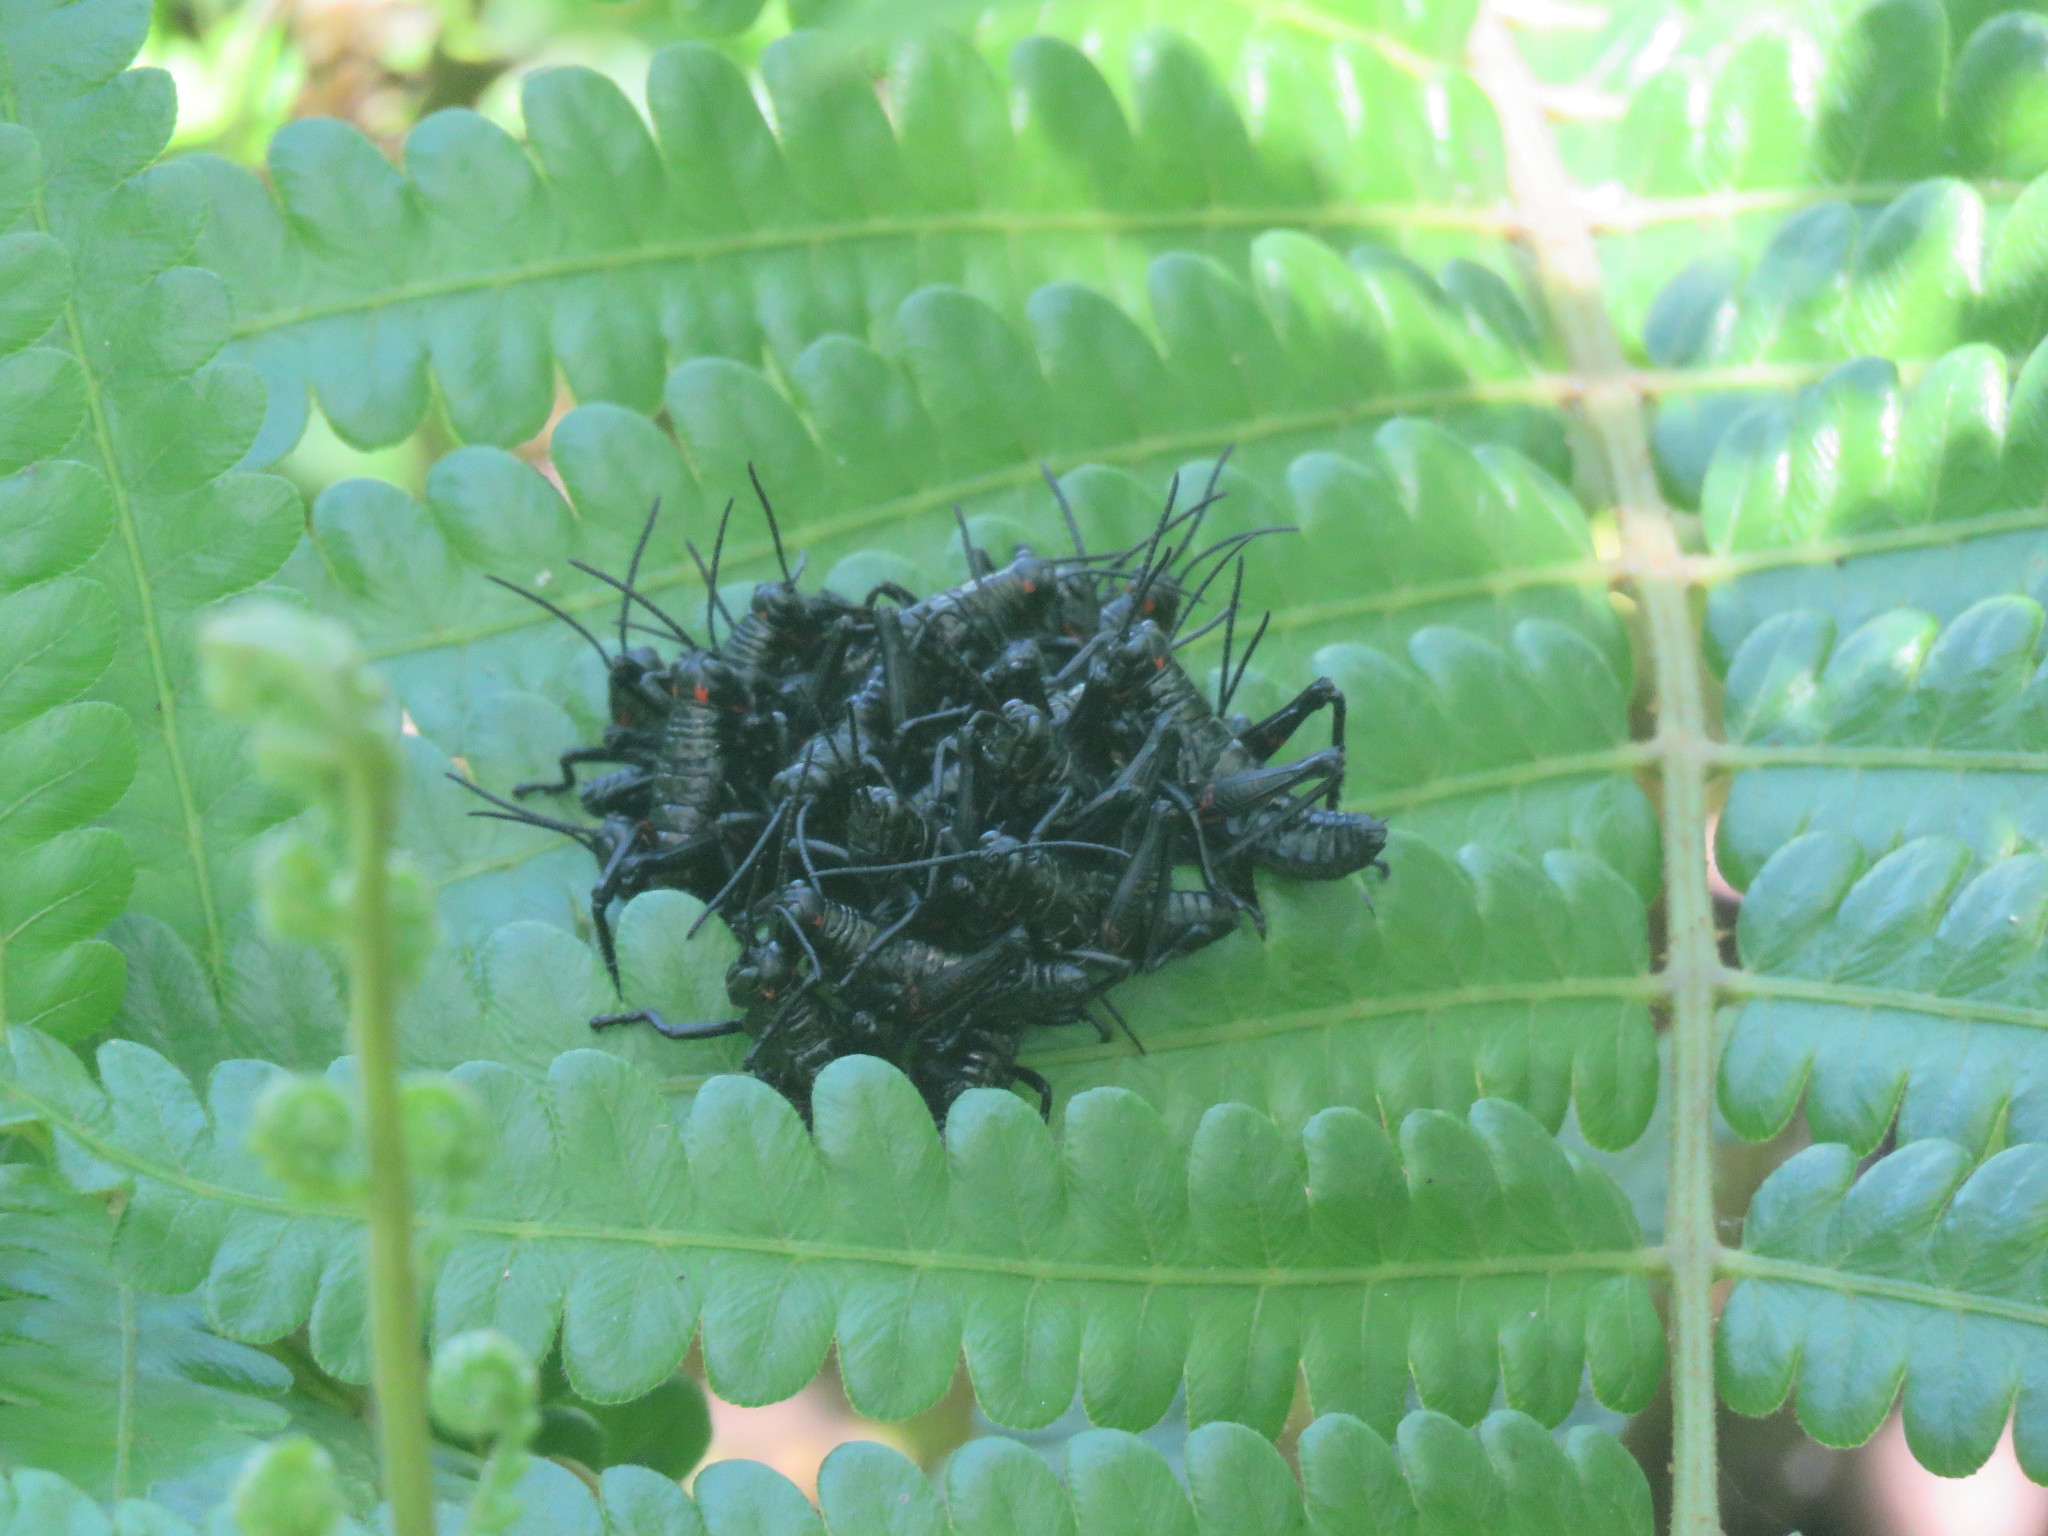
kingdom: Animalia
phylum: Arthropoda
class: Insecta
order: Orthoptera
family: Romaleidae
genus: Chromacris
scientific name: Chromacris speciosa
